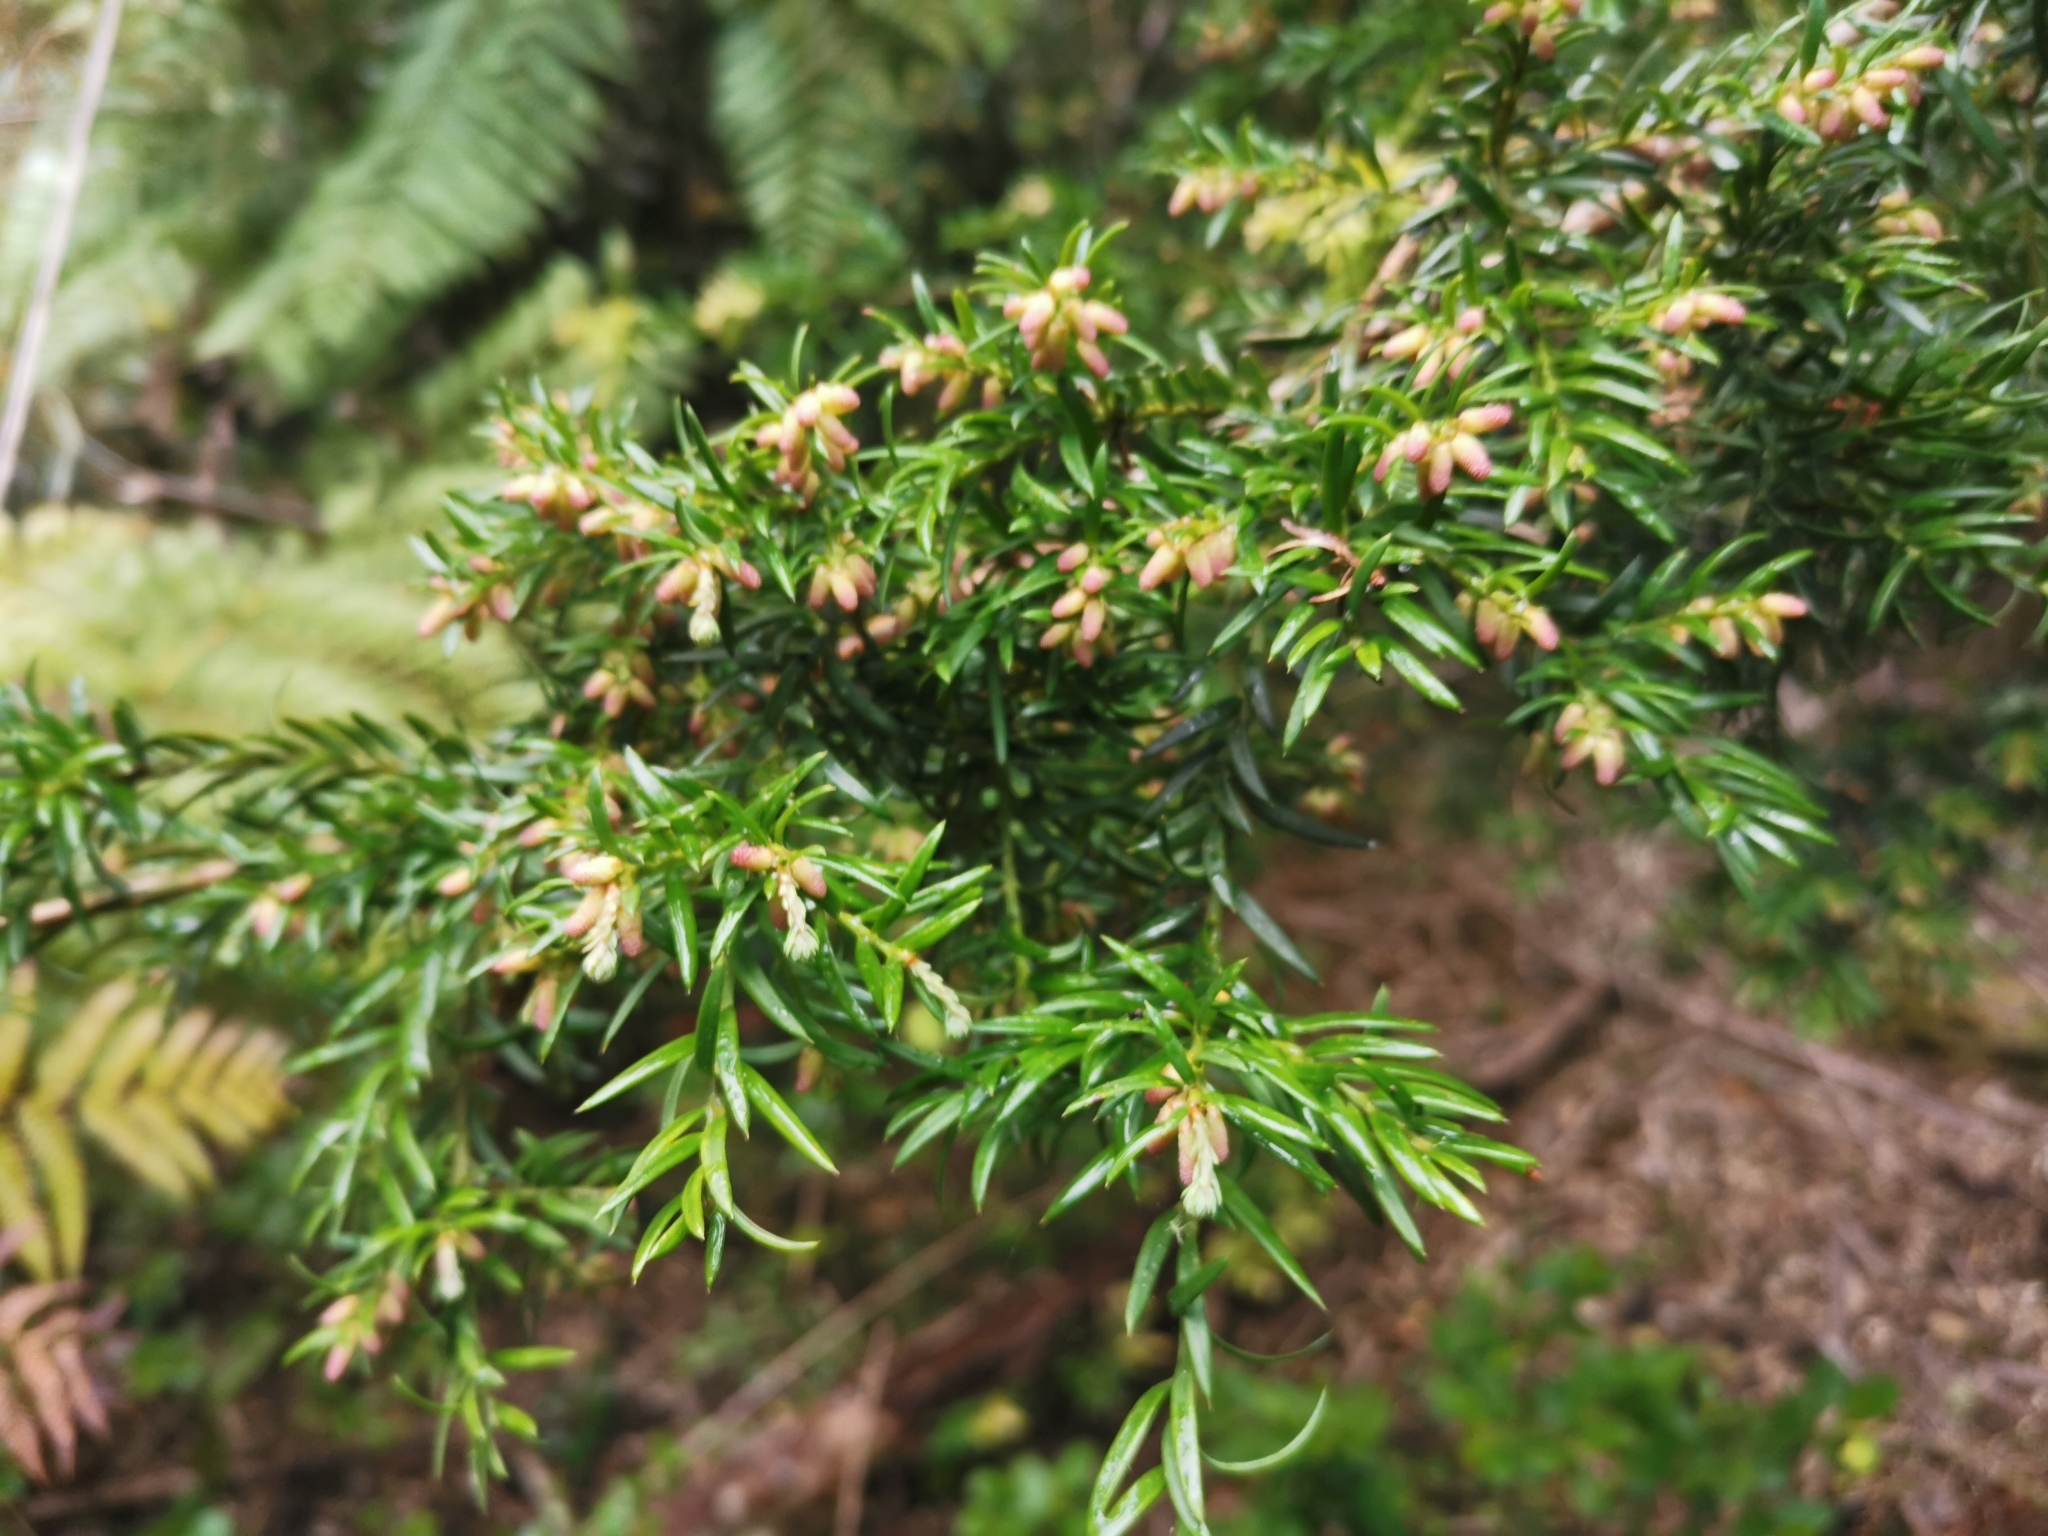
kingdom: Plantae
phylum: Tracheophyta
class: Pinopsida
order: Pinales
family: Podocarpaceae
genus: Saxegothaea
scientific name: Saxegothaea conspicua
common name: Prince albert's yew
